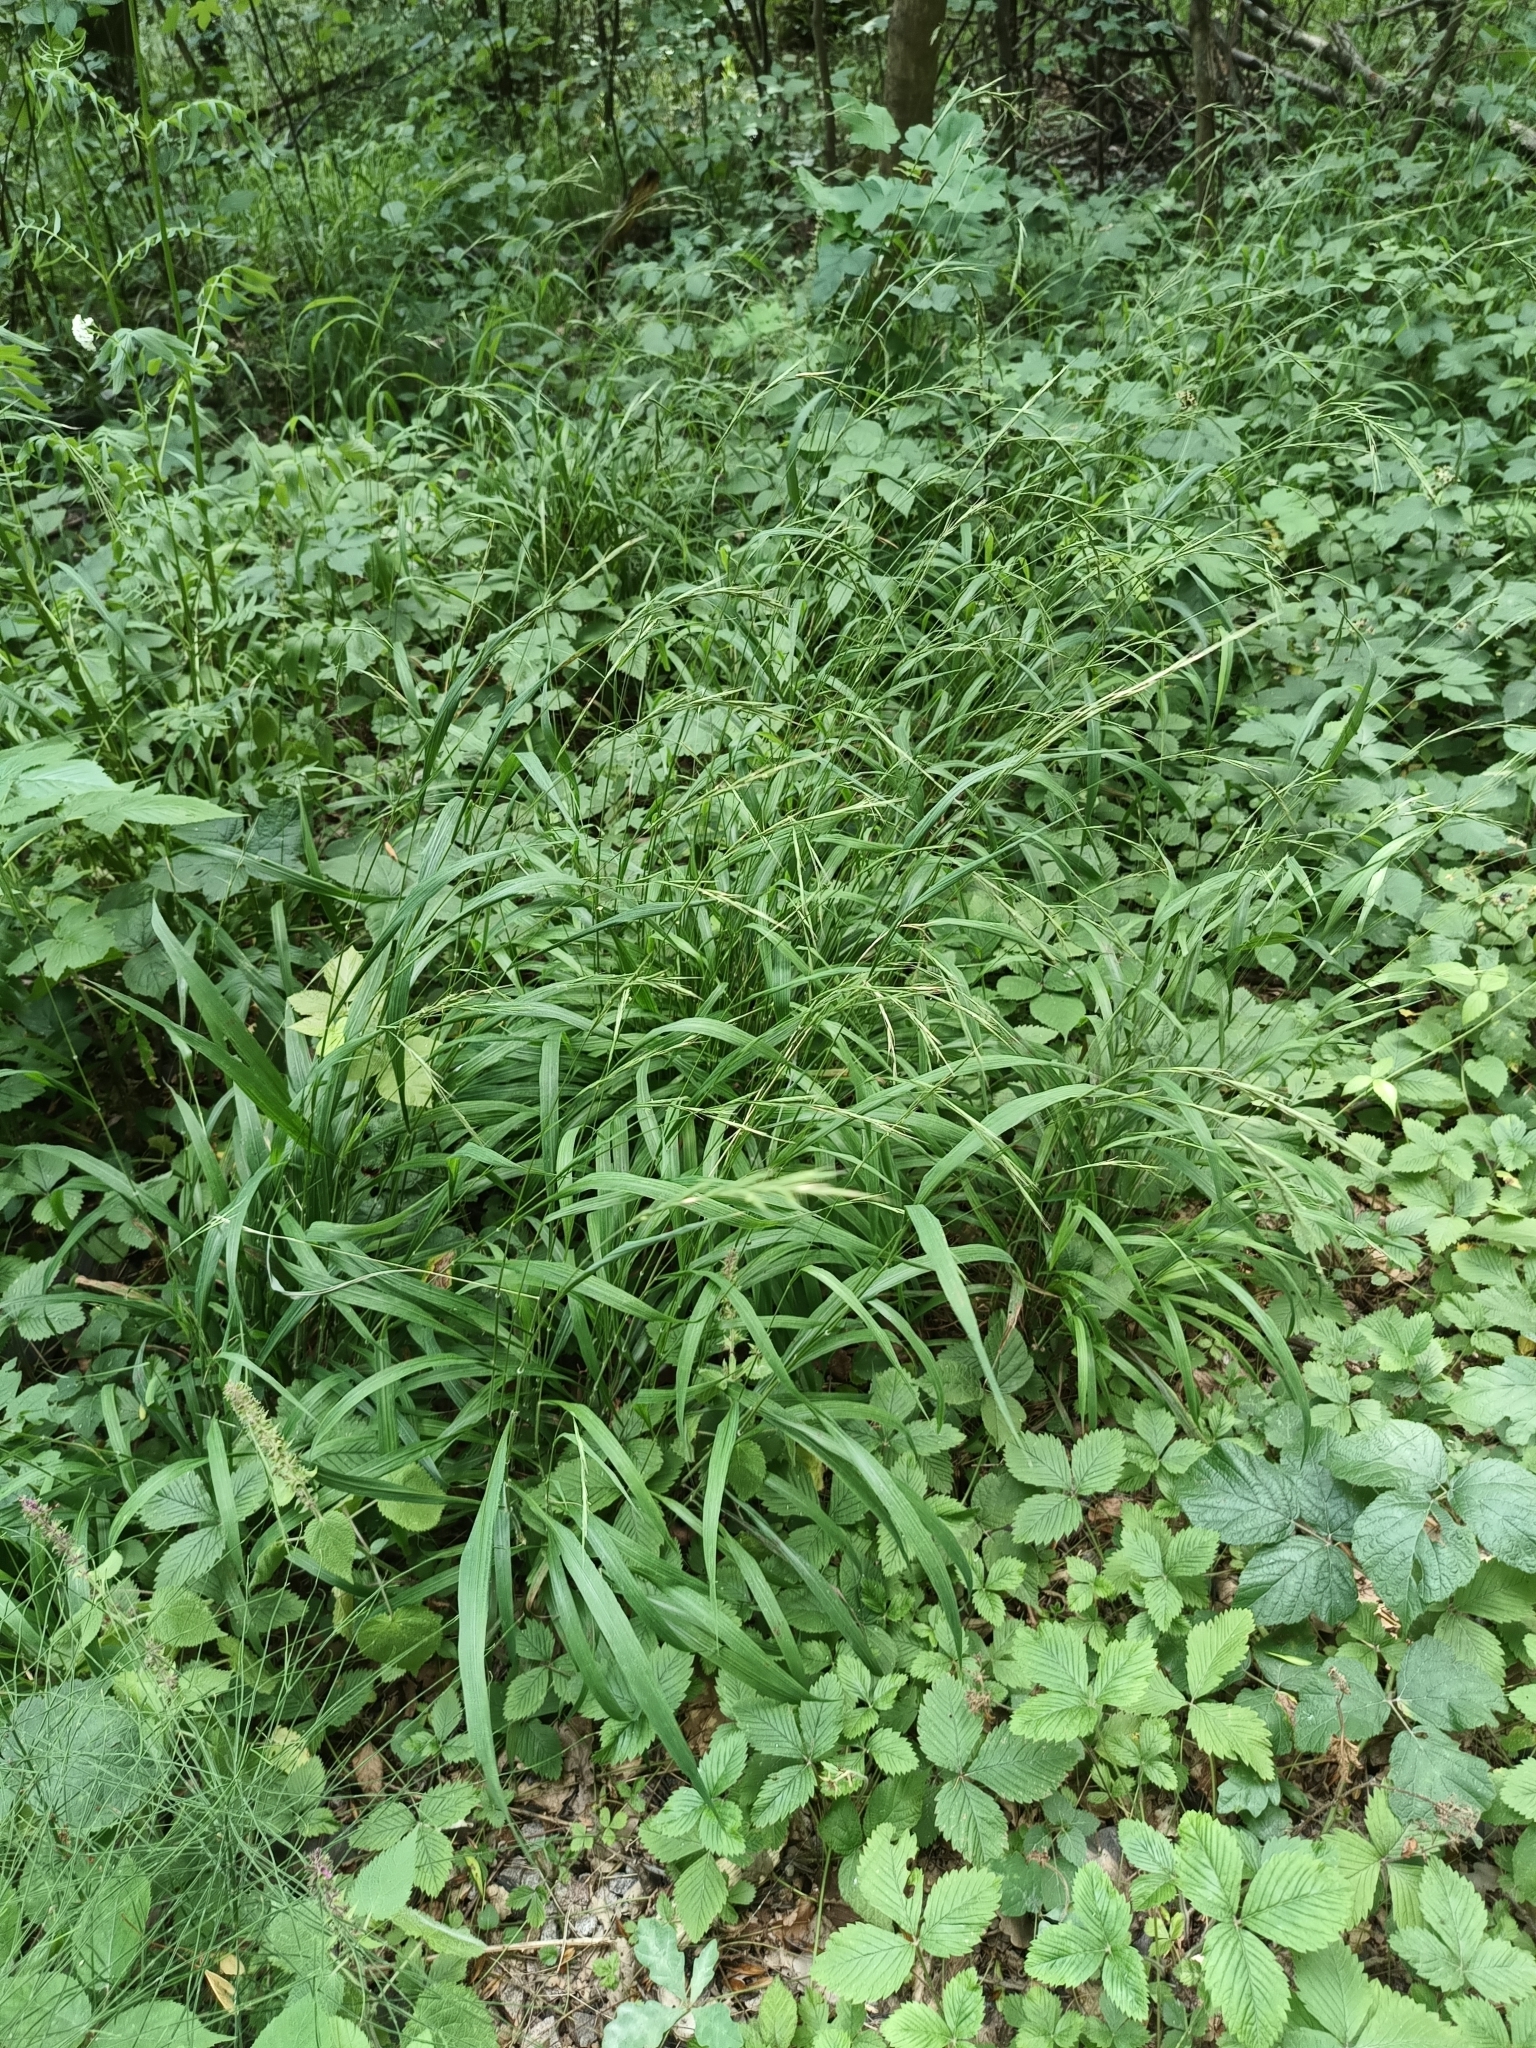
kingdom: Plantae
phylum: Tracheophyta
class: Liliopsida
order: Poales
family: Poaceae
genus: Brachypodium
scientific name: Brachypodium sylvaticum
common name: False-brome
